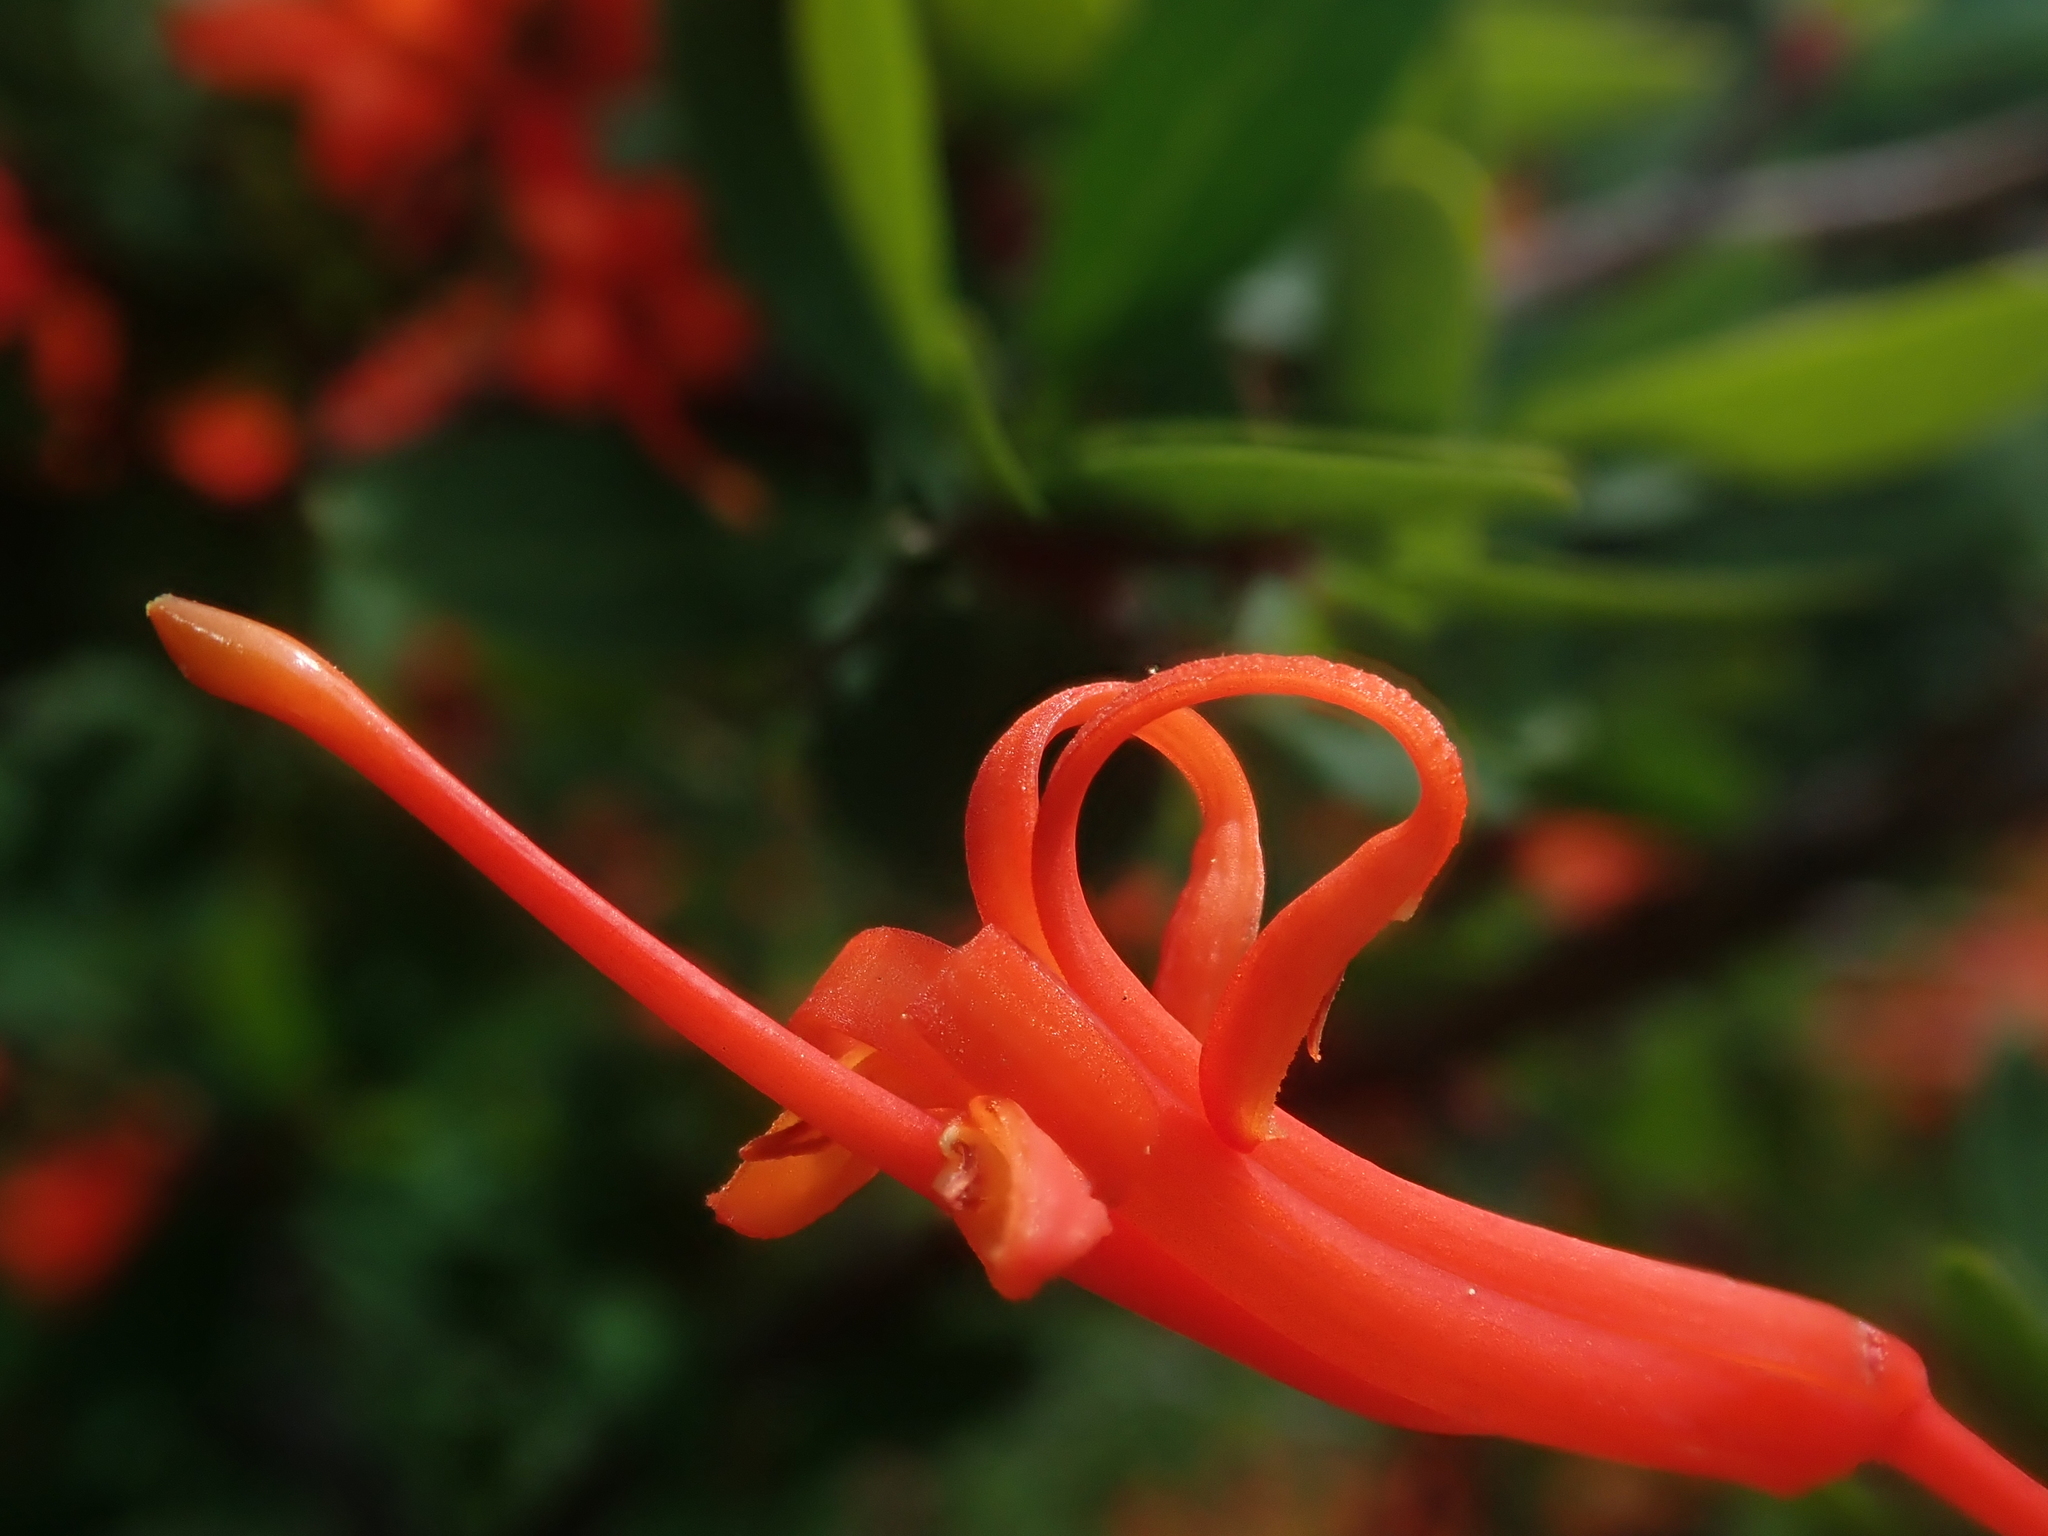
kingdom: Plantae
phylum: Tracheophyta
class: Magnoliopsida
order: Proteales
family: Proteaceae
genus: Embothrium
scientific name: Embothrium coccineum
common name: Chilean firebush
